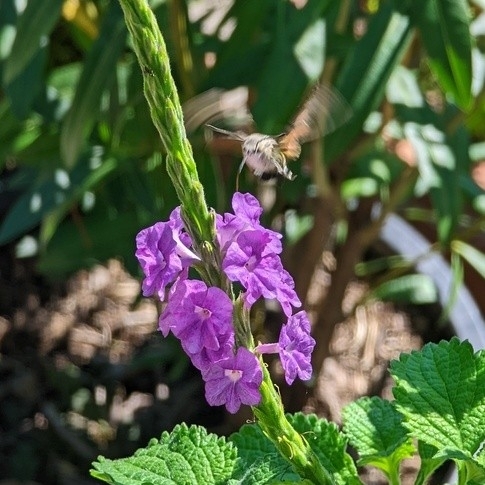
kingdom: Animalia
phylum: Arthropoda
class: Insecta
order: Lepidoptera
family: Sphingidae
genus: Macroglossum
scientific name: Macroglossum stellatarum
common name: Humming-bird hawk-moth
